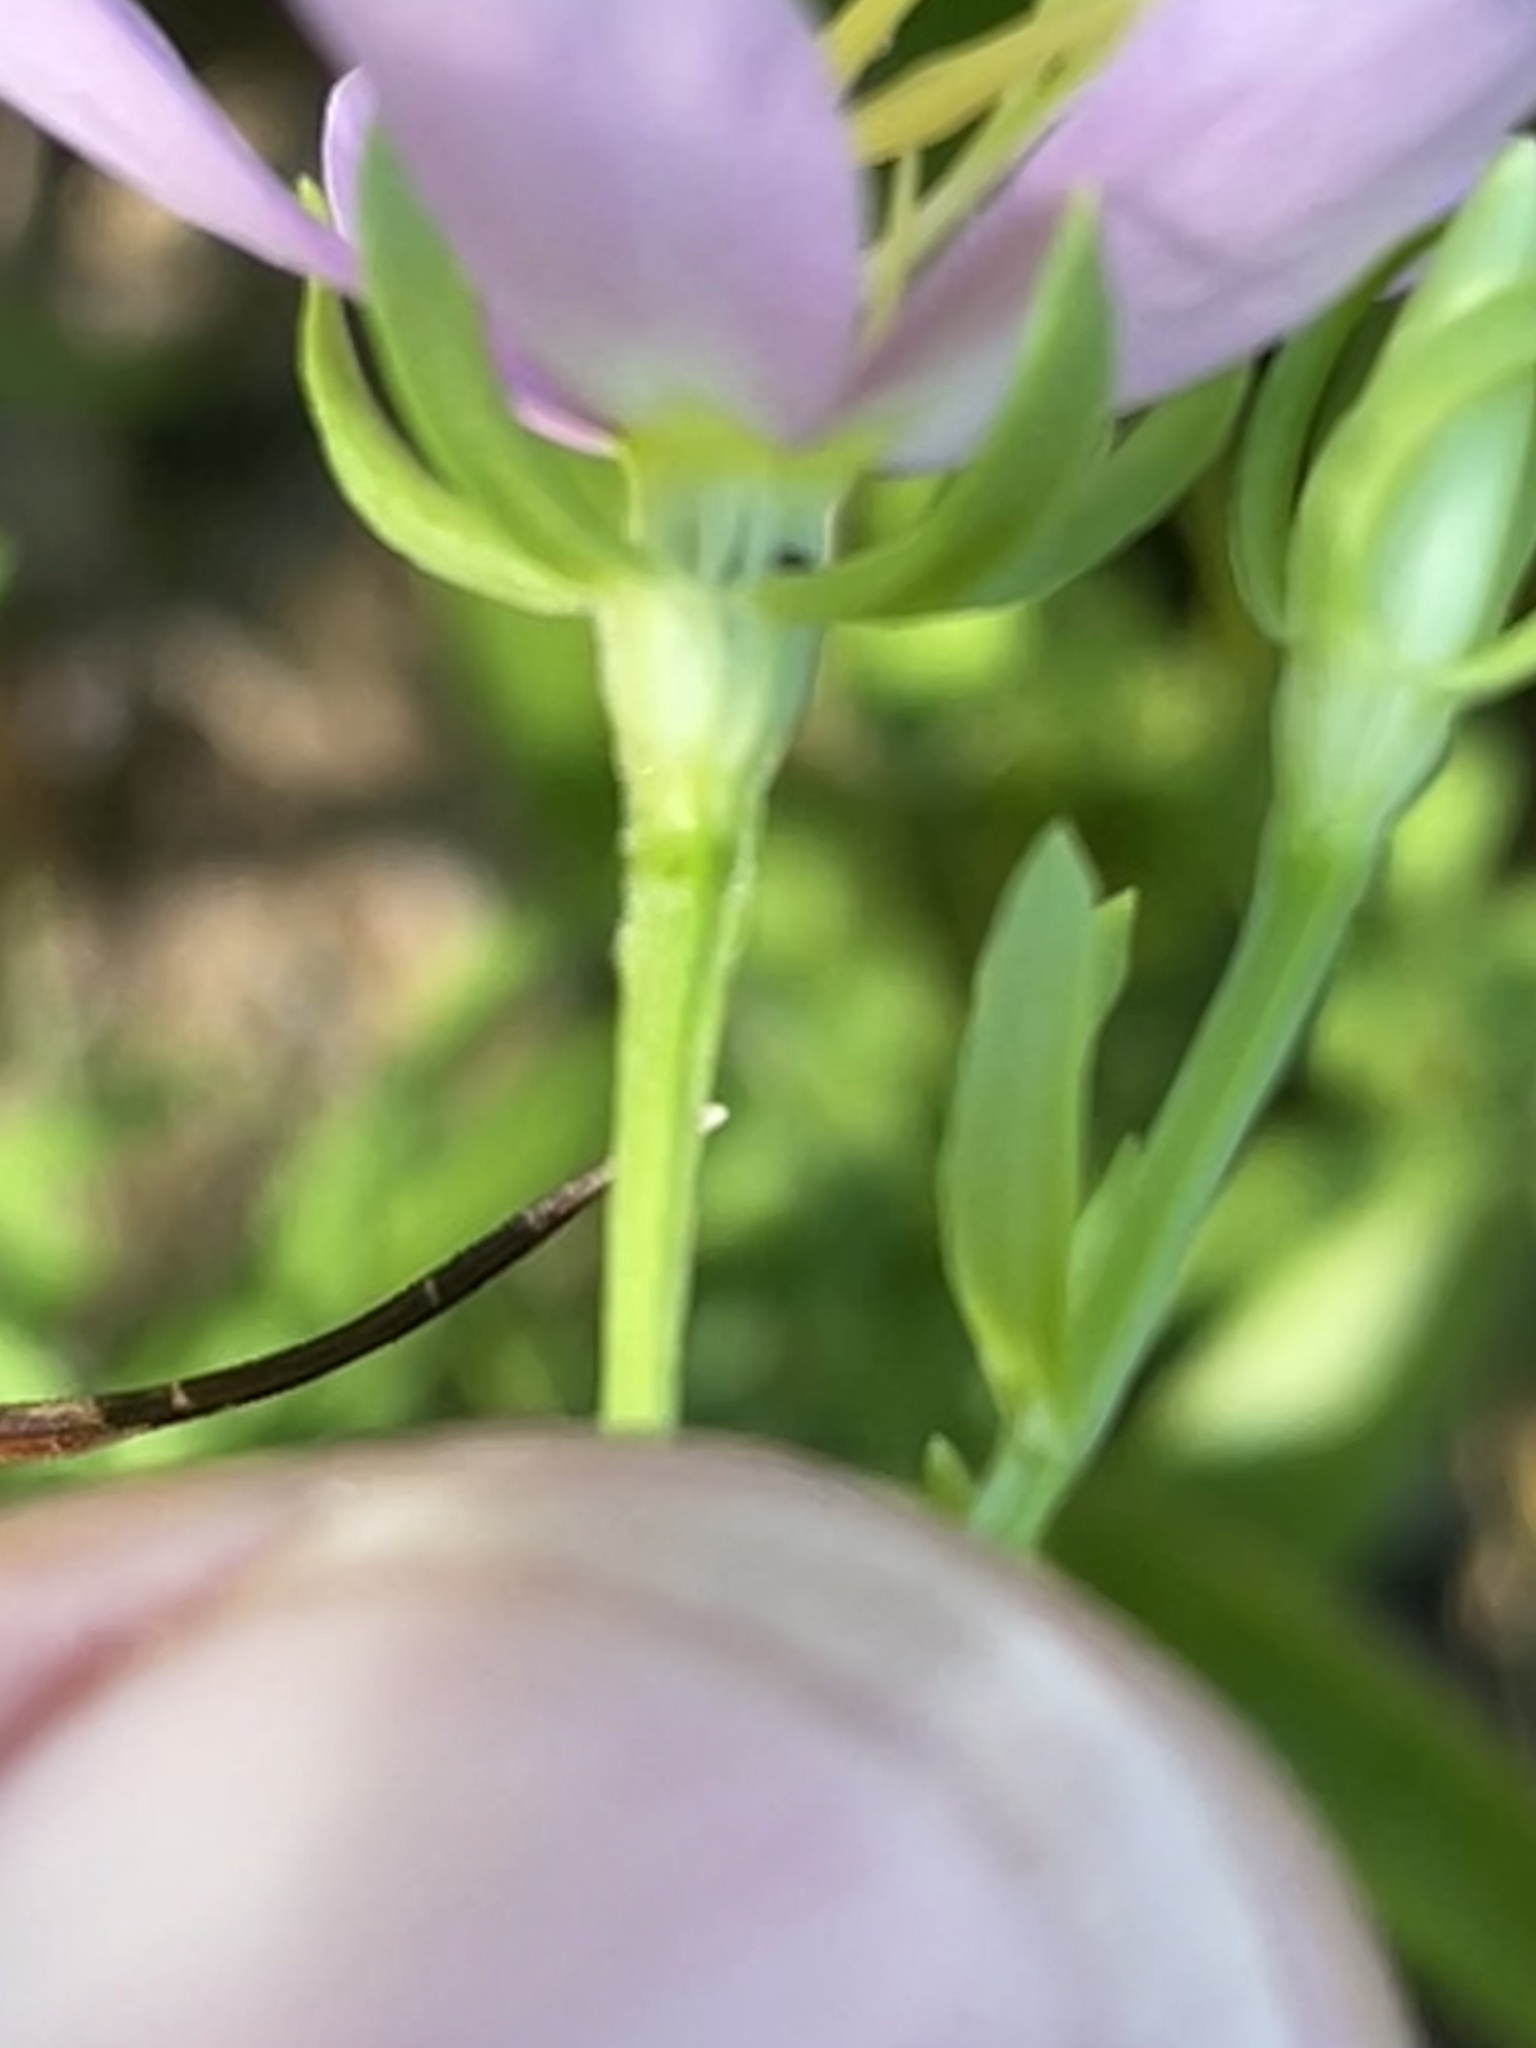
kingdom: Plantae
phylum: Tracheophyta
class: Magnoliopsida
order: Gentianales
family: Gentianaceae
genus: Sabatia
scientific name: Sabatia angularis
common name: Rose-pink
